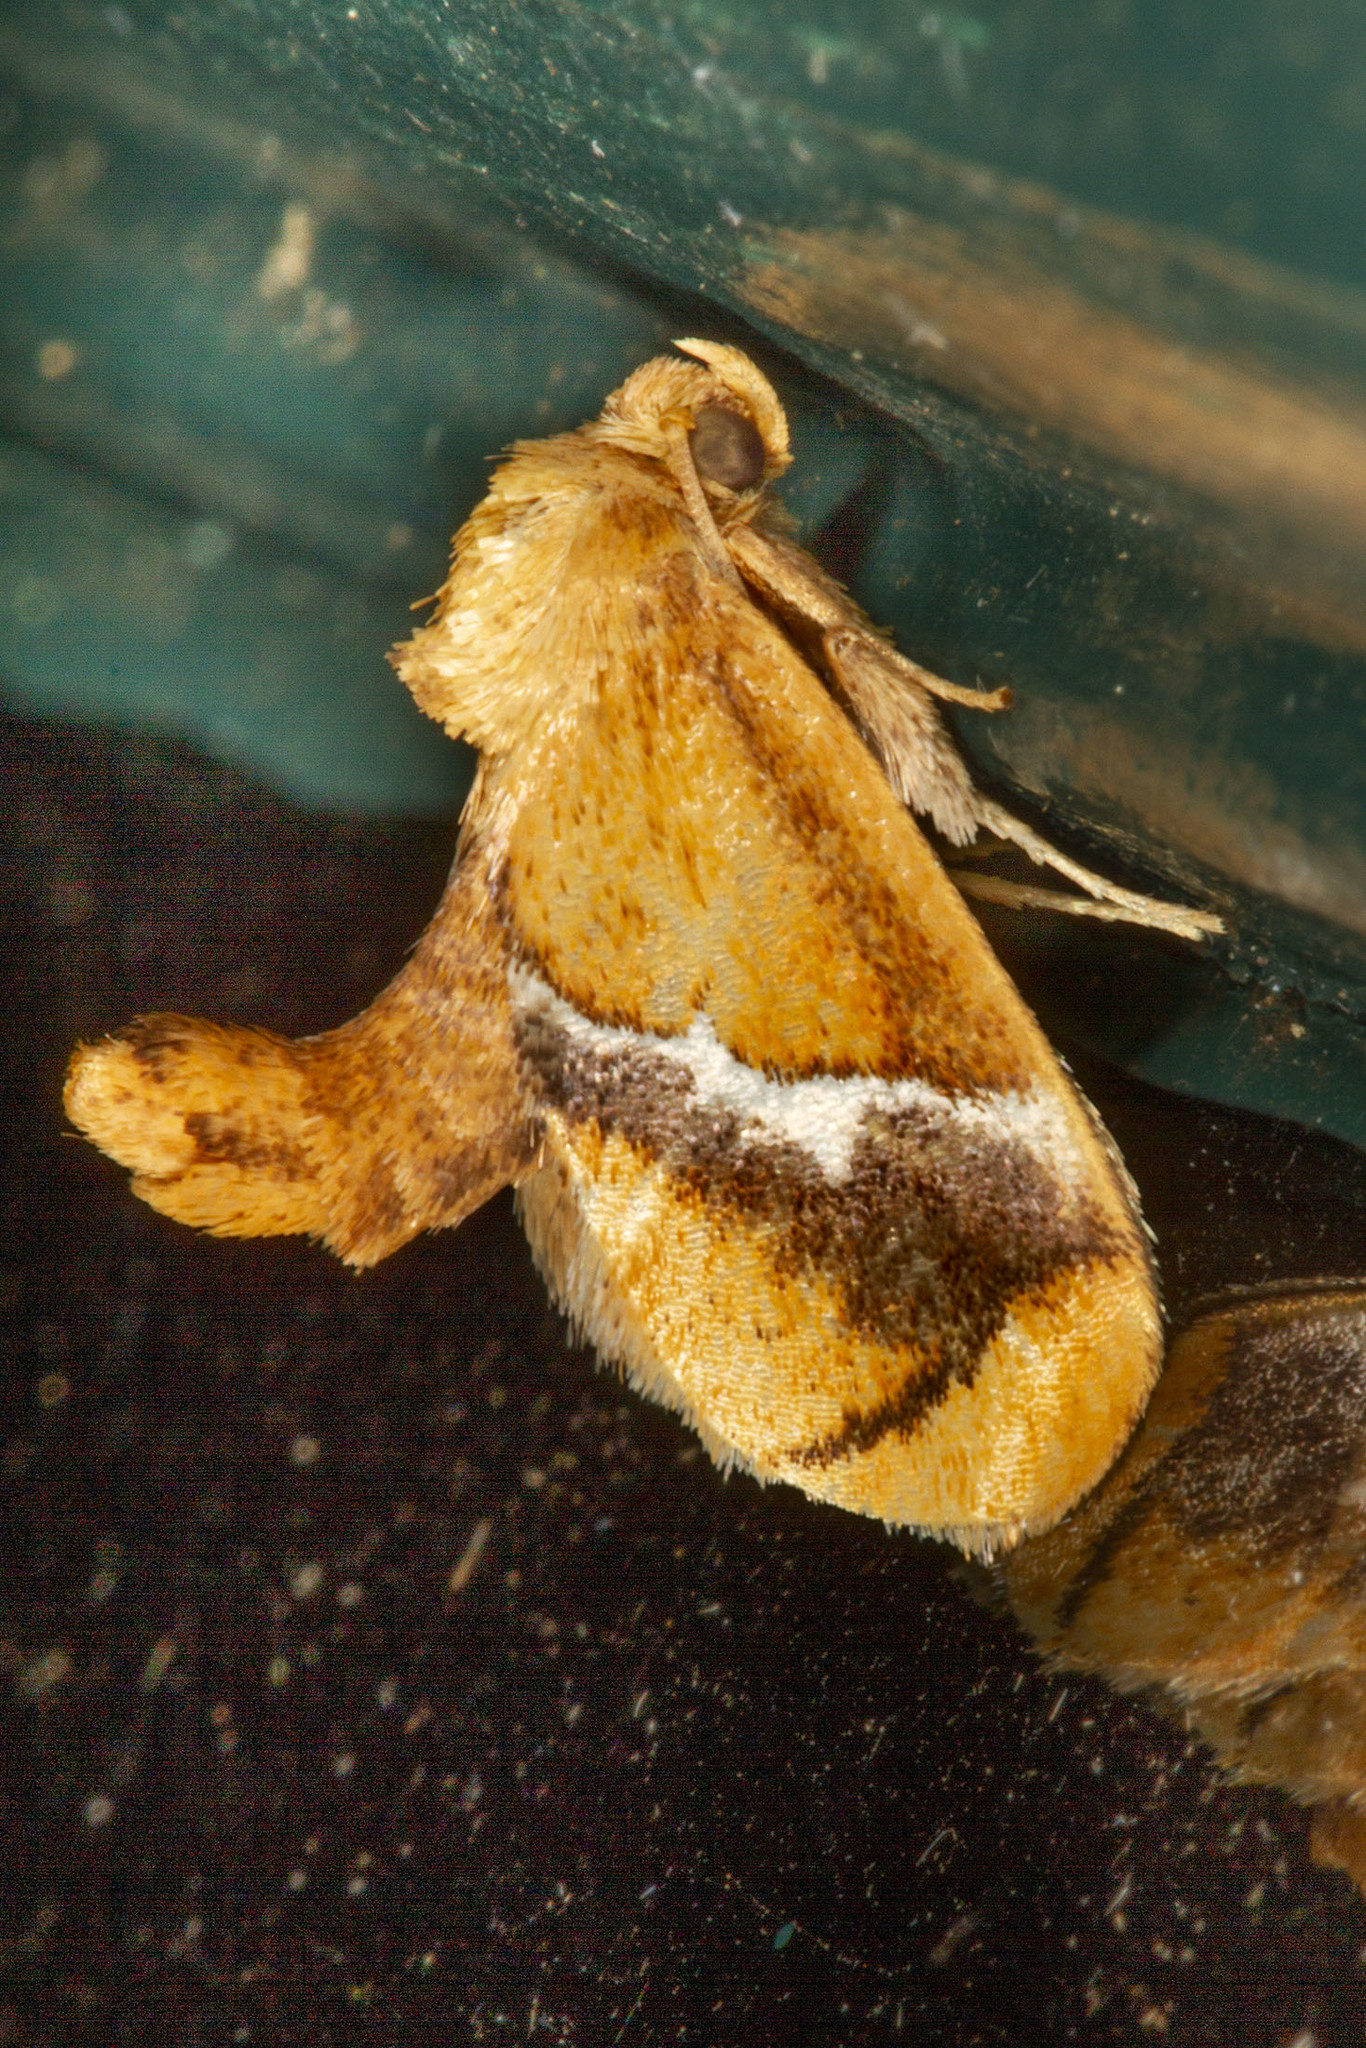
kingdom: Animalia
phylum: Arthropoda
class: Insecta
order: Lepidoptera
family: Limacodidae
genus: Lithacodes
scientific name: Lithacodes fasciola
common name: Yellow-shouldered slug moth
